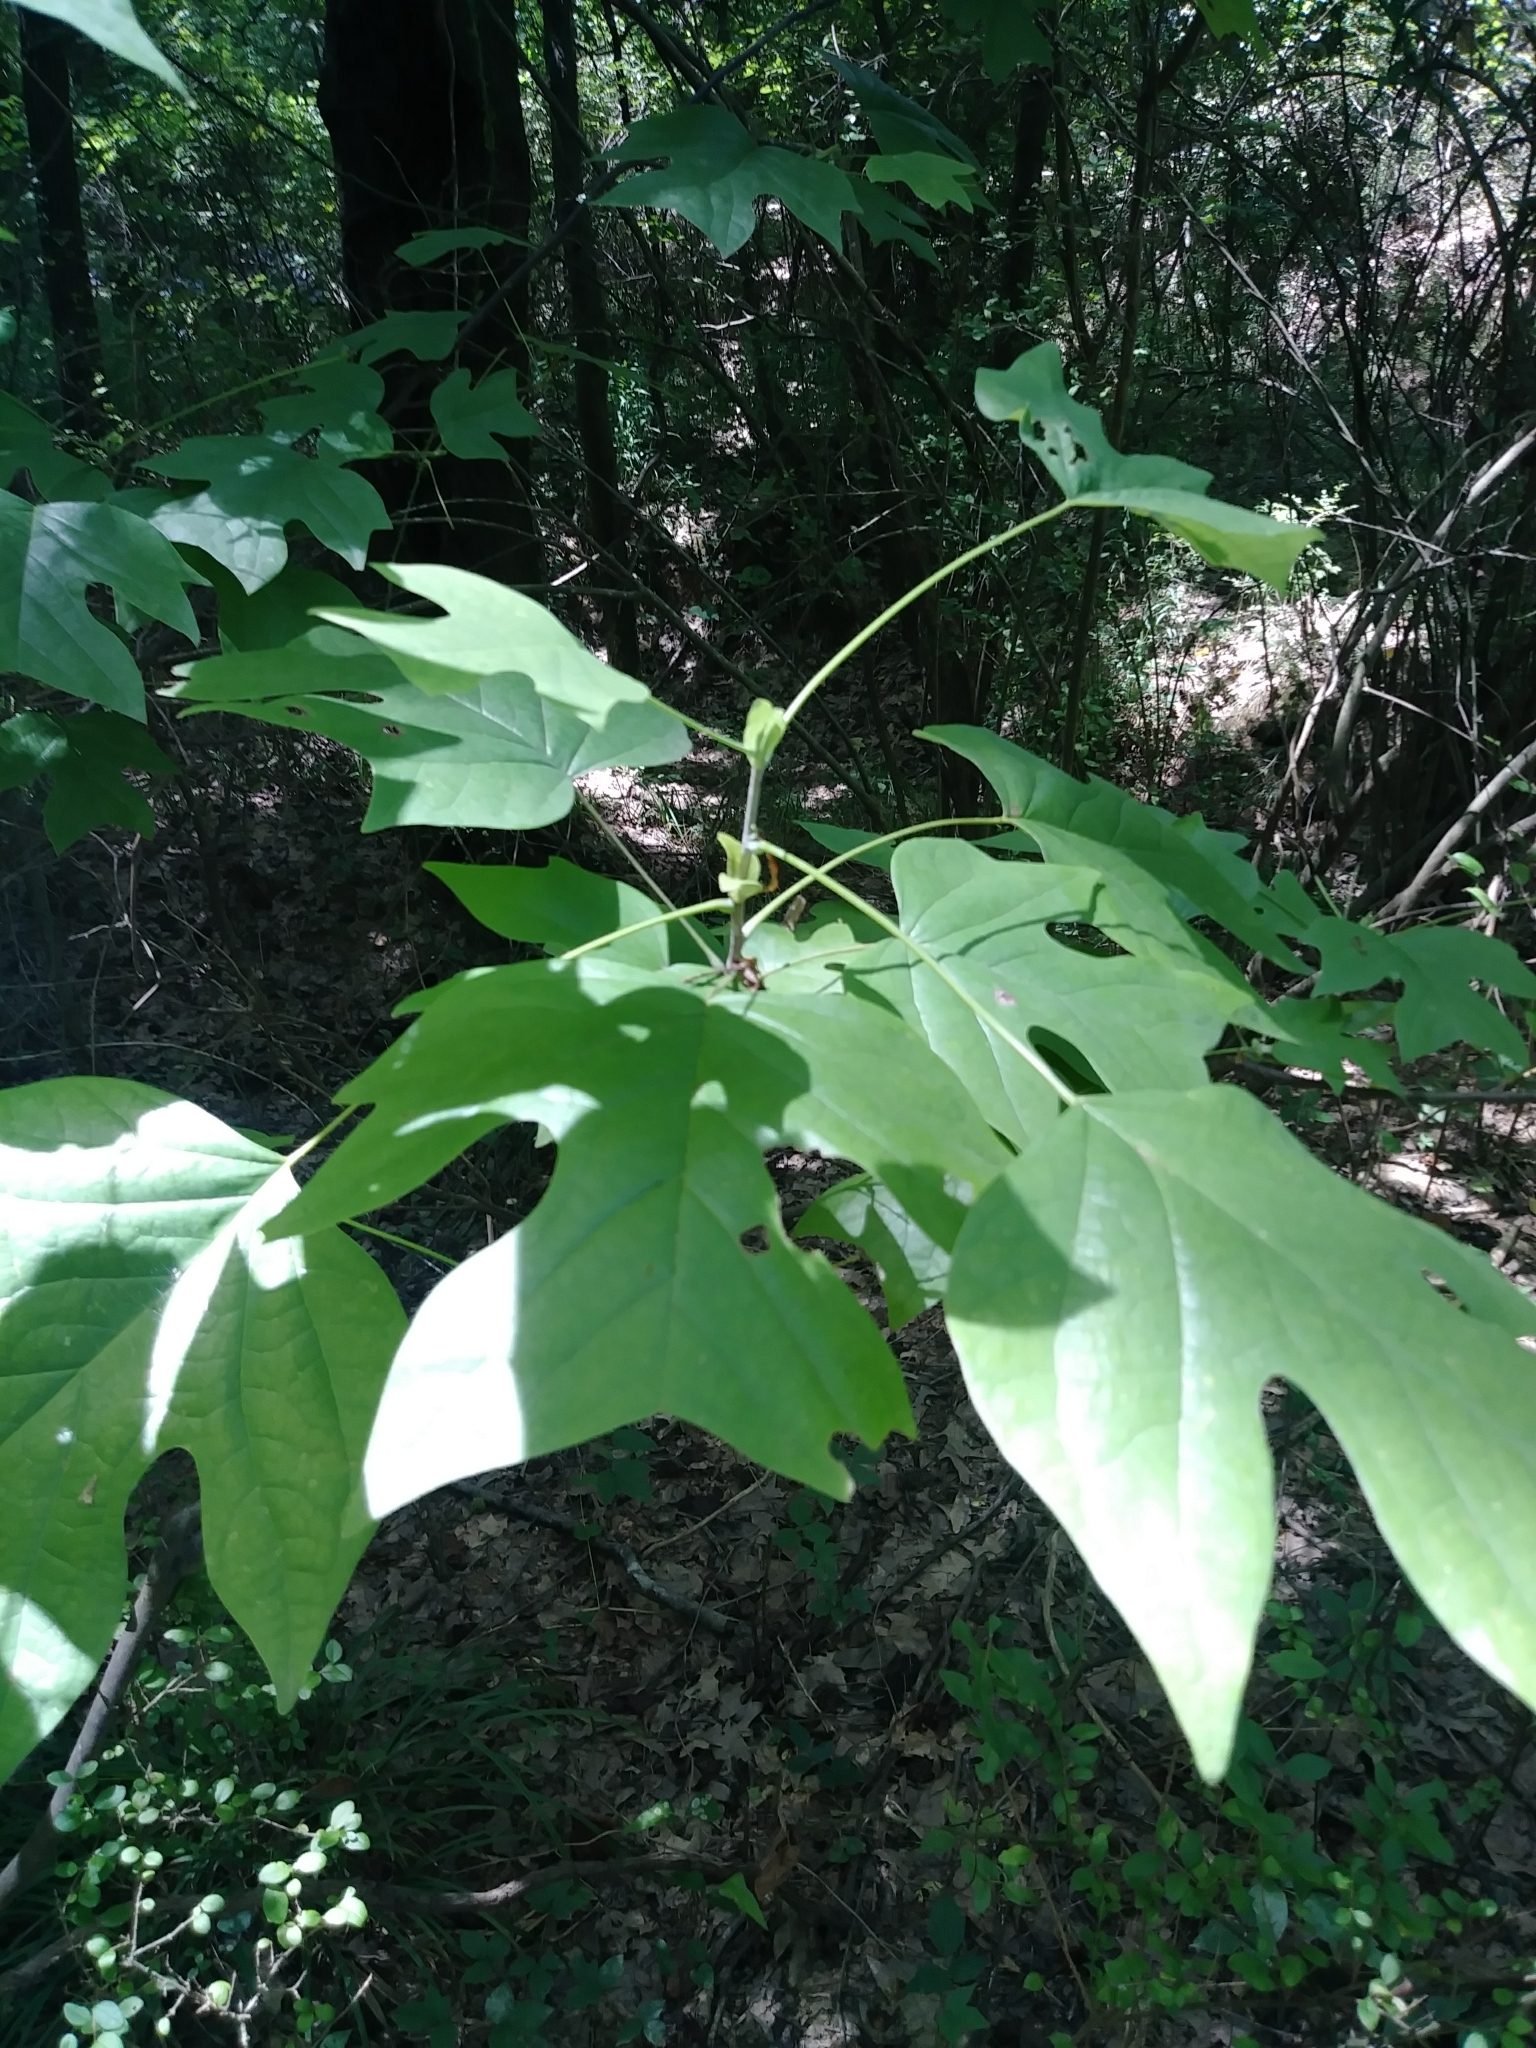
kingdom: Plantae
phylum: Tracheophyta
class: Magnoliopsida
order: Magnoliales
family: Magnoliaceae
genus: Liriodendron
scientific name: Liriodendron tulipifera
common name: Tulip tree
